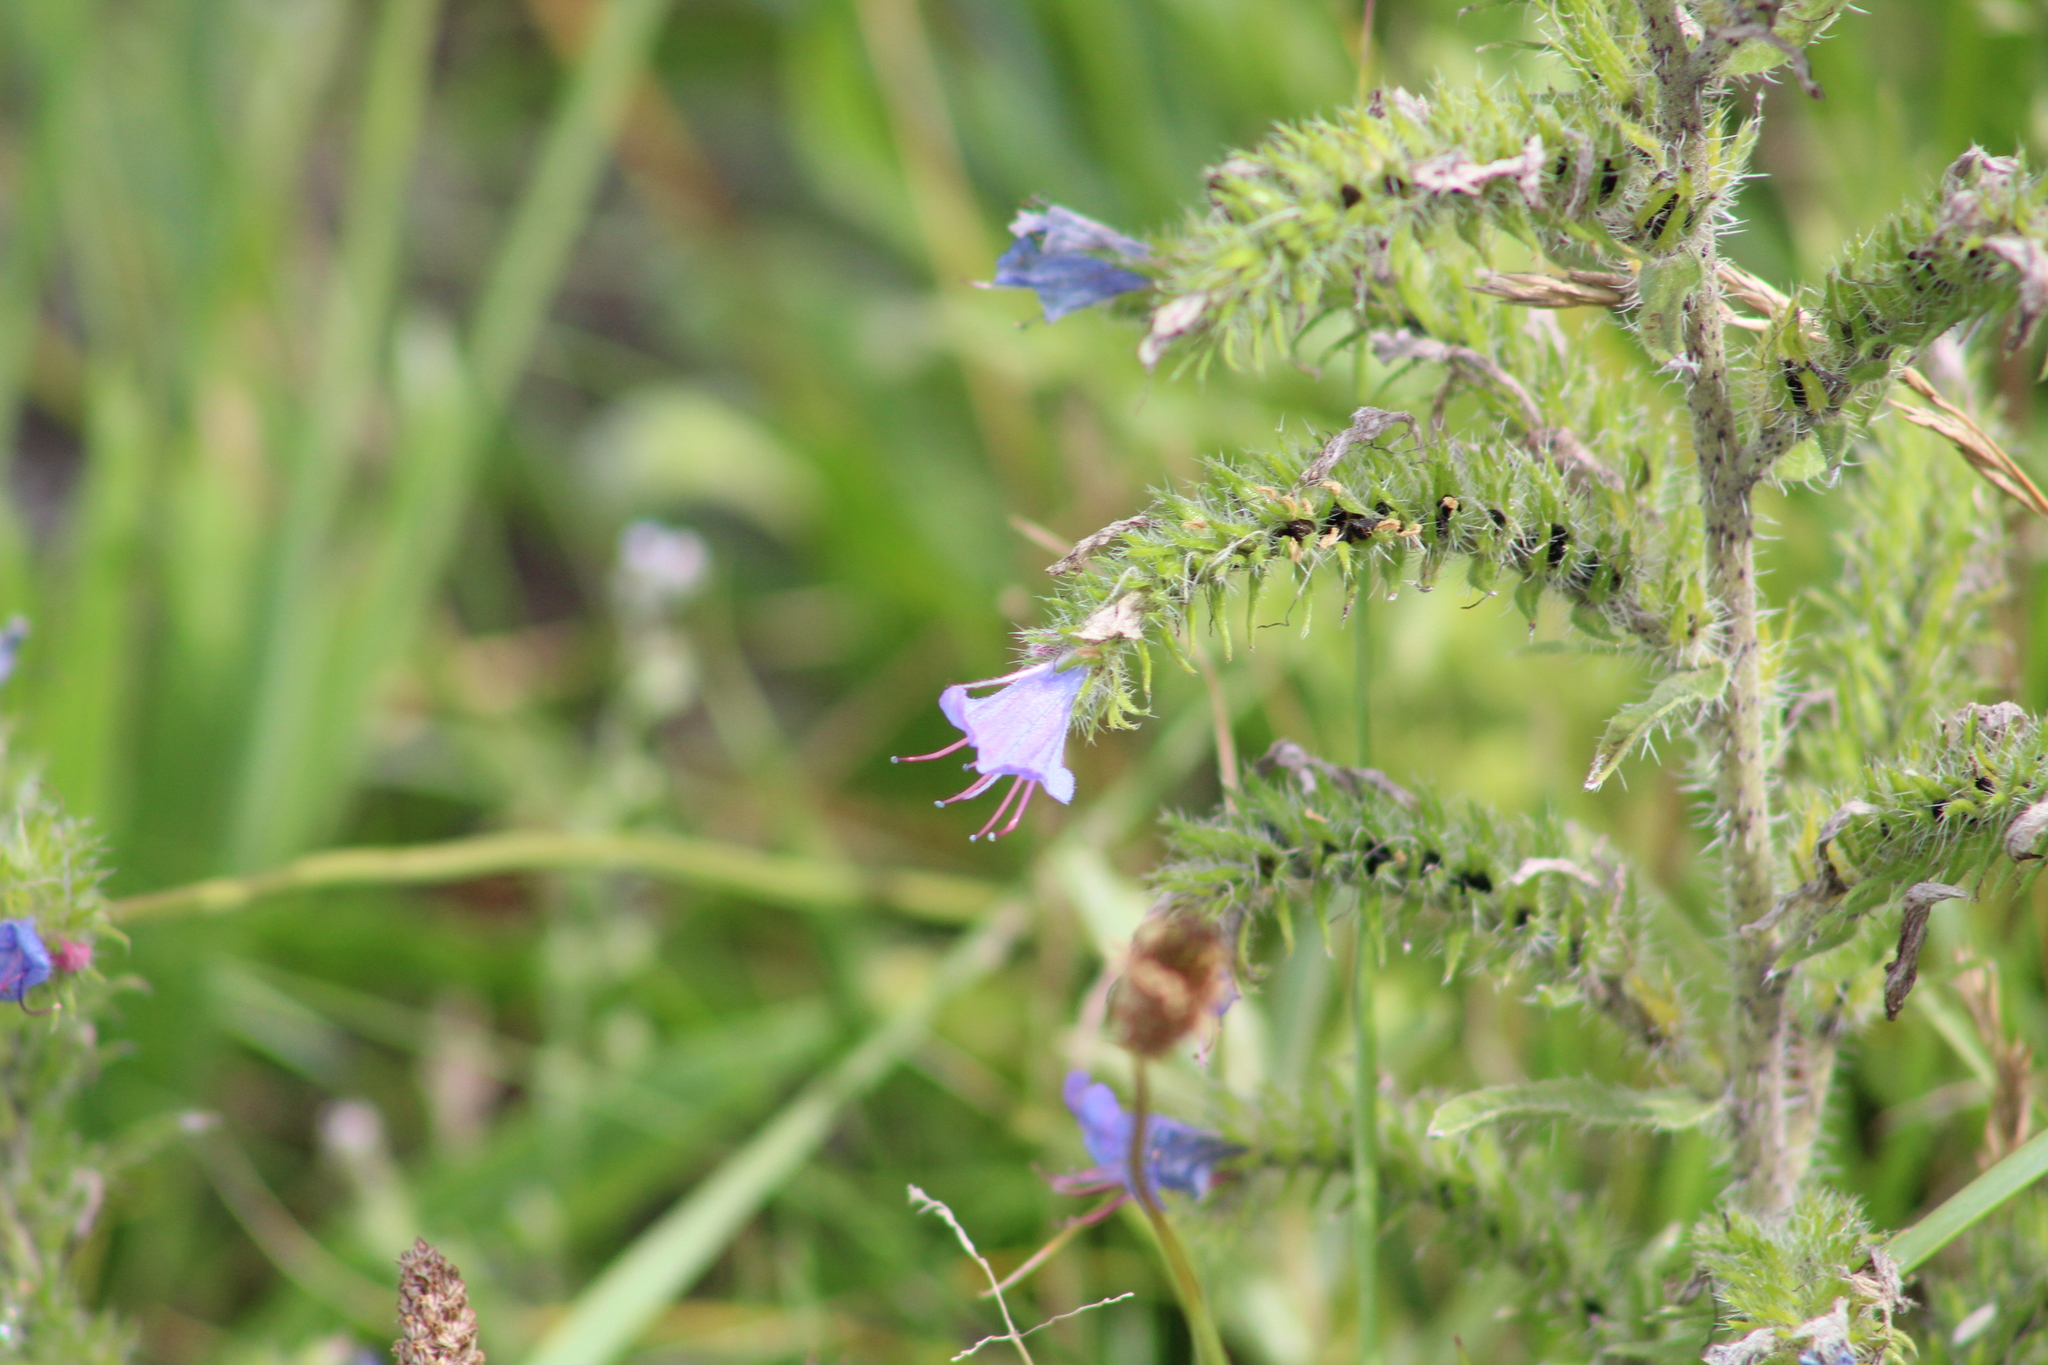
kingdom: Plantae
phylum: Tracheophyta
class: Magnoliopsida
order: Boraginales
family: Boraginaceae
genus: Echium
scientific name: Echium vulgare
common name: Common viper's bugloss
